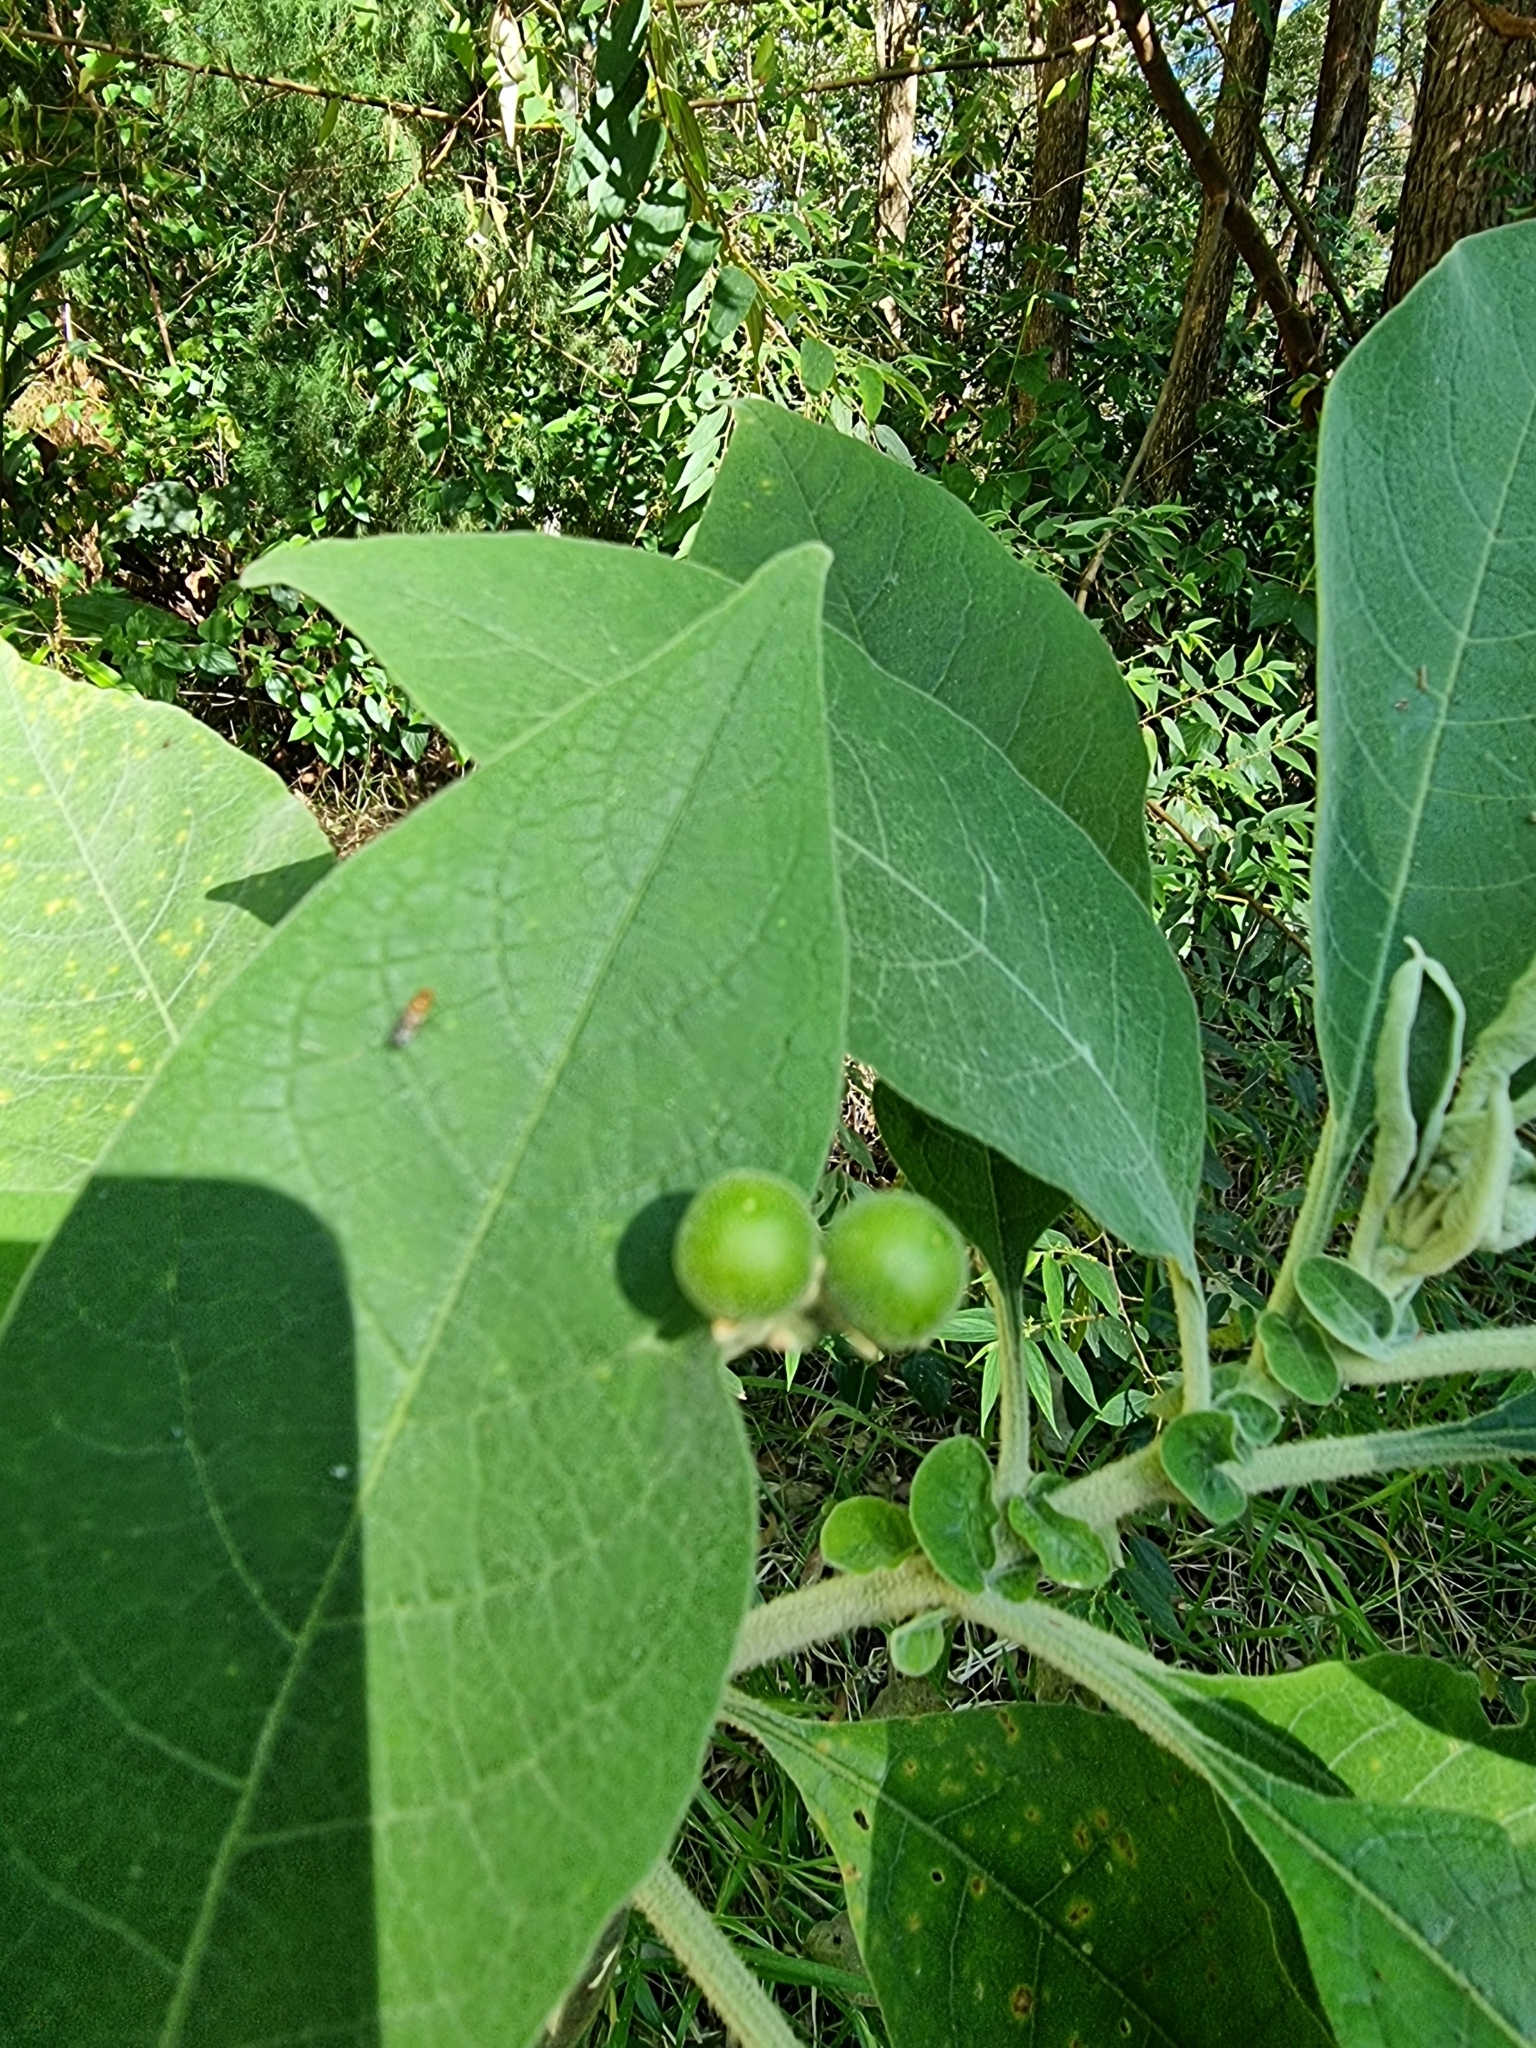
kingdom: Plantae
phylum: Tracheophyta
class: Magnoliopsida
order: Solanales
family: Solanaceae
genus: Solanum
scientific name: Solanum mauritianum
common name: Earleaf nightshade
